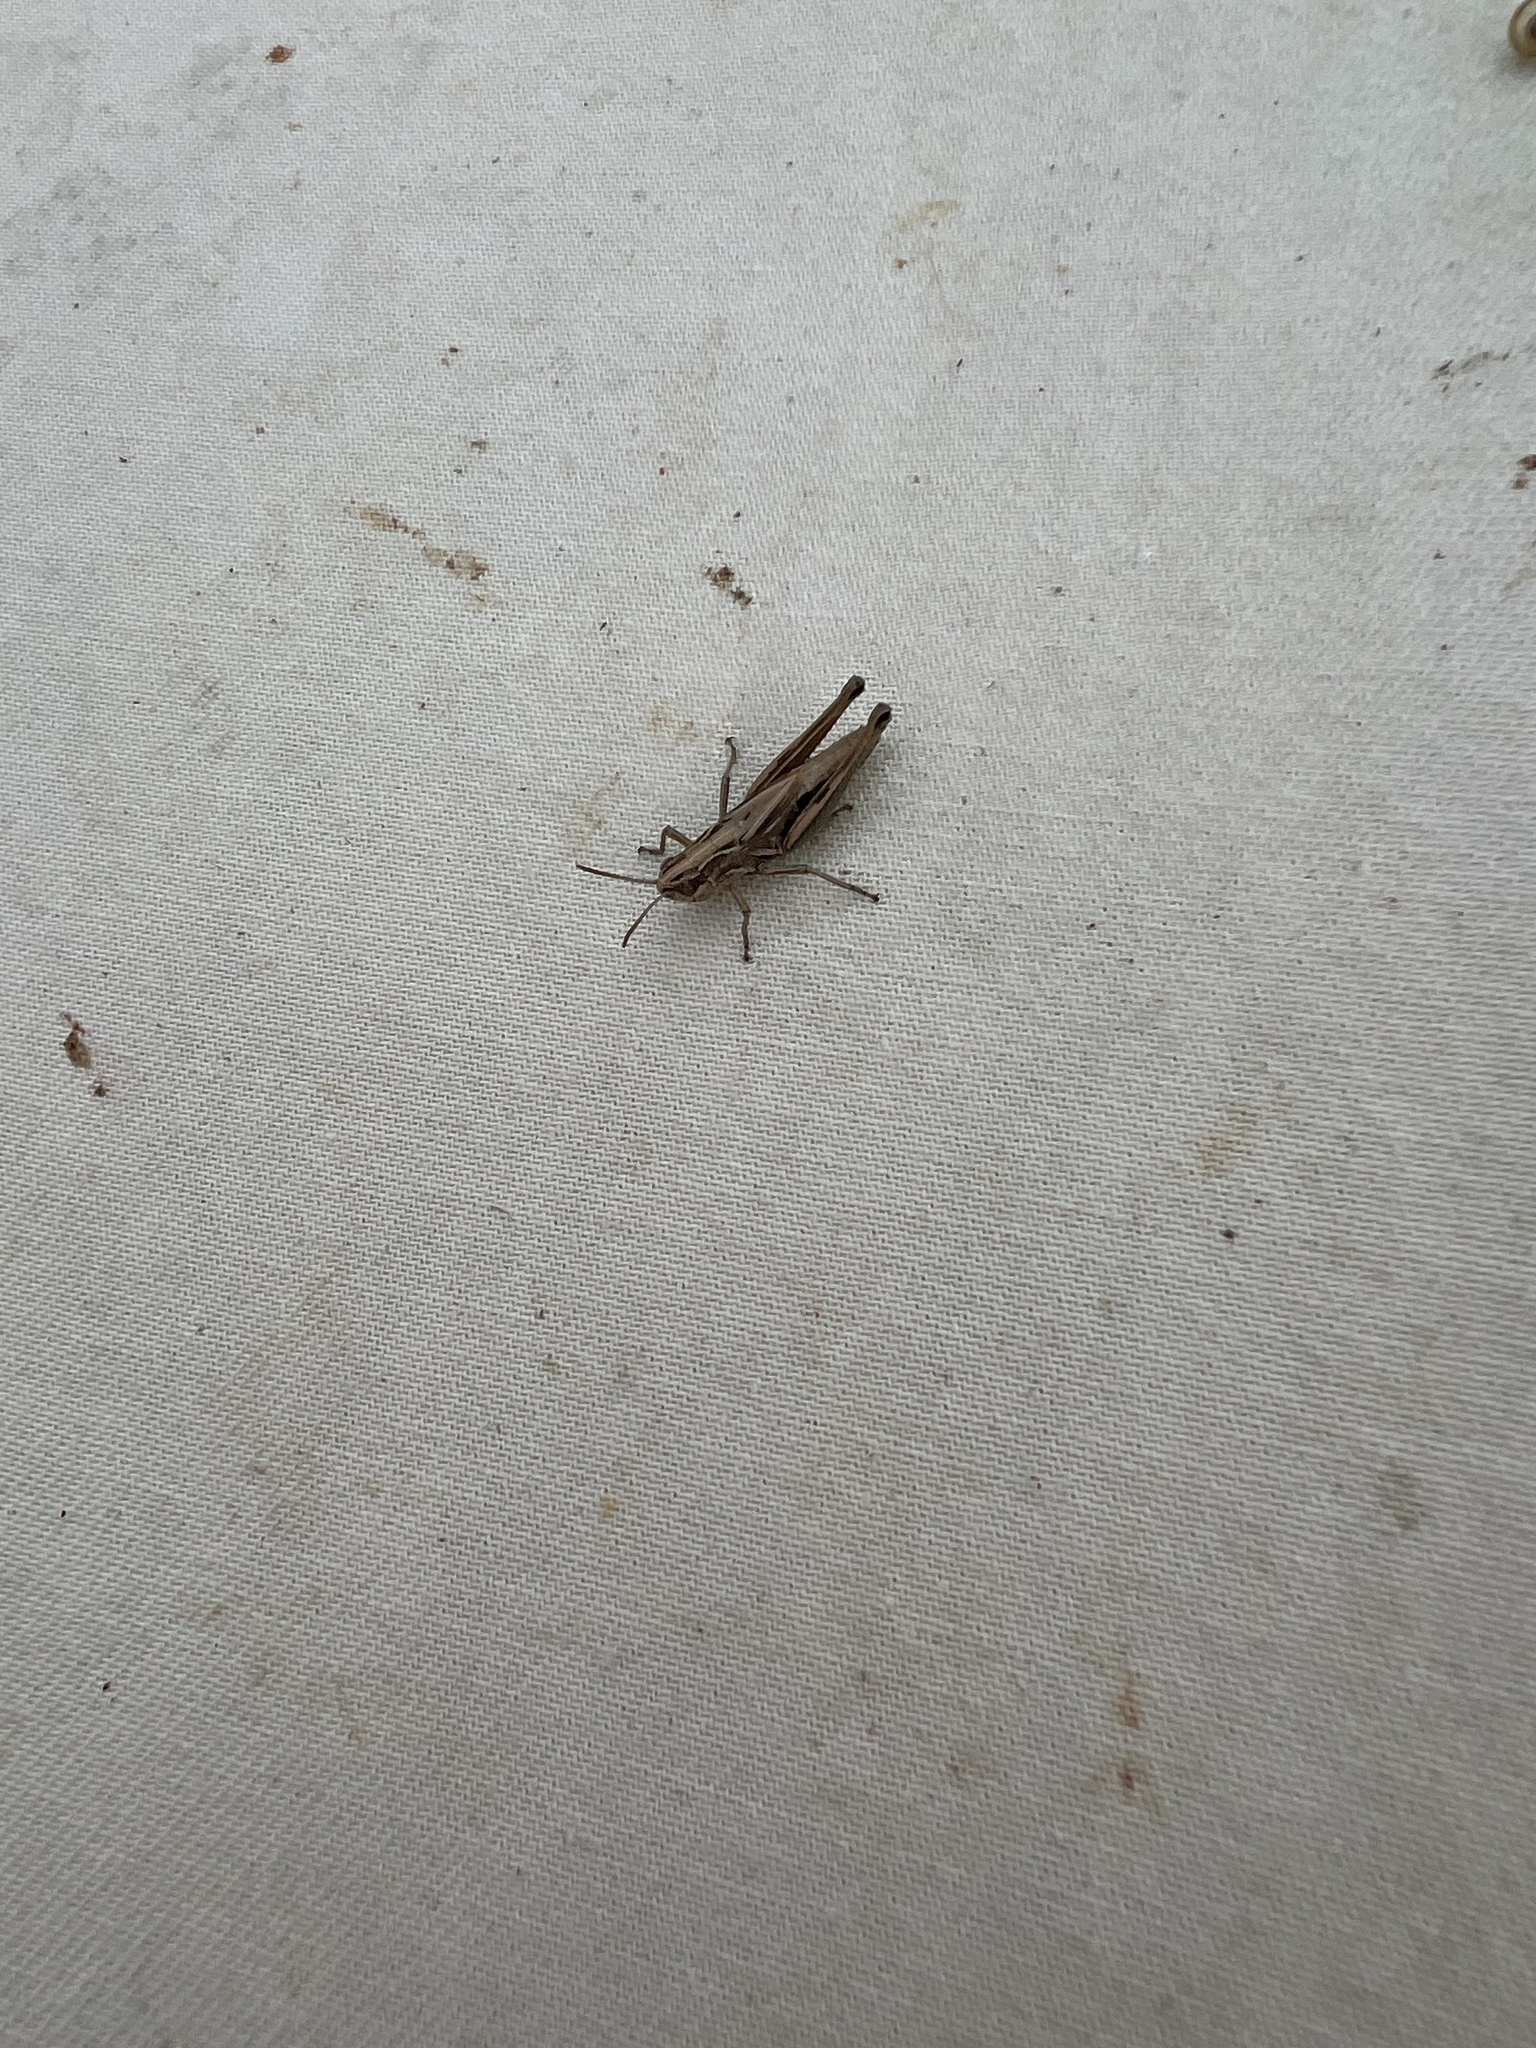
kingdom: Animalia
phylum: Arthropoda
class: Insecta
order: Orthoptera
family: Acrididae
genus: Pseudochorthippus
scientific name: Pseudochorthippus parallelus
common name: Meadow grasshopper
